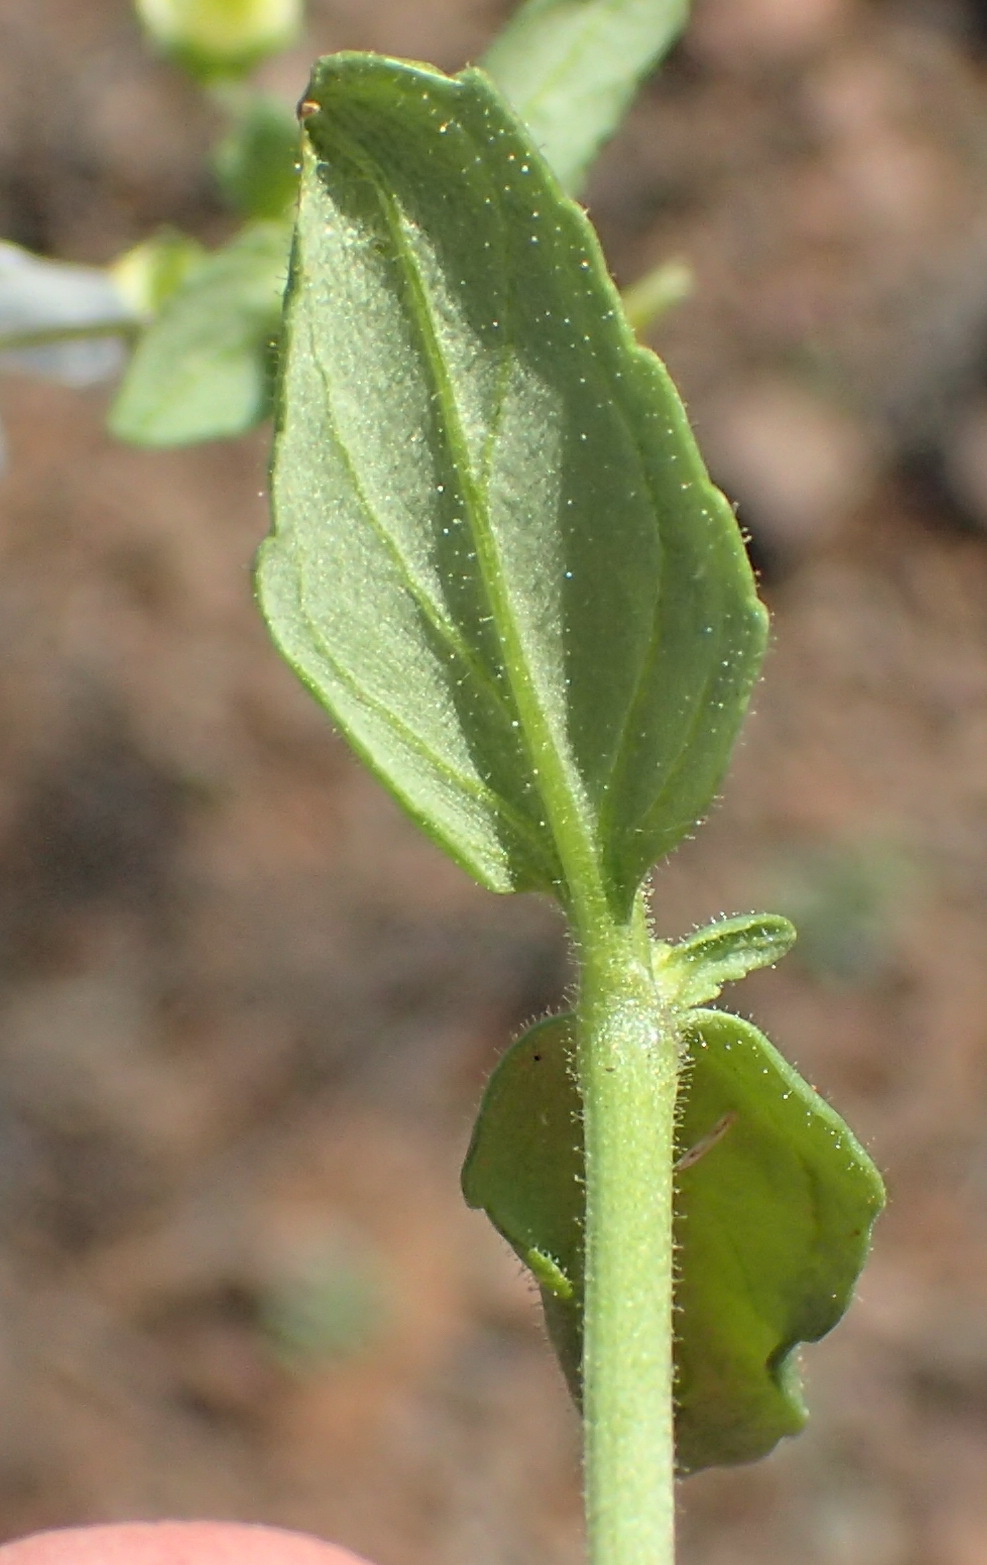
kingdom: Plantae
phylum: Tracheophyta
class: Magnoliopsida
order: Lamiales
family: Scrophulariaceae
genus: Nemesia
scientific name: Nemesia anisocarpa
